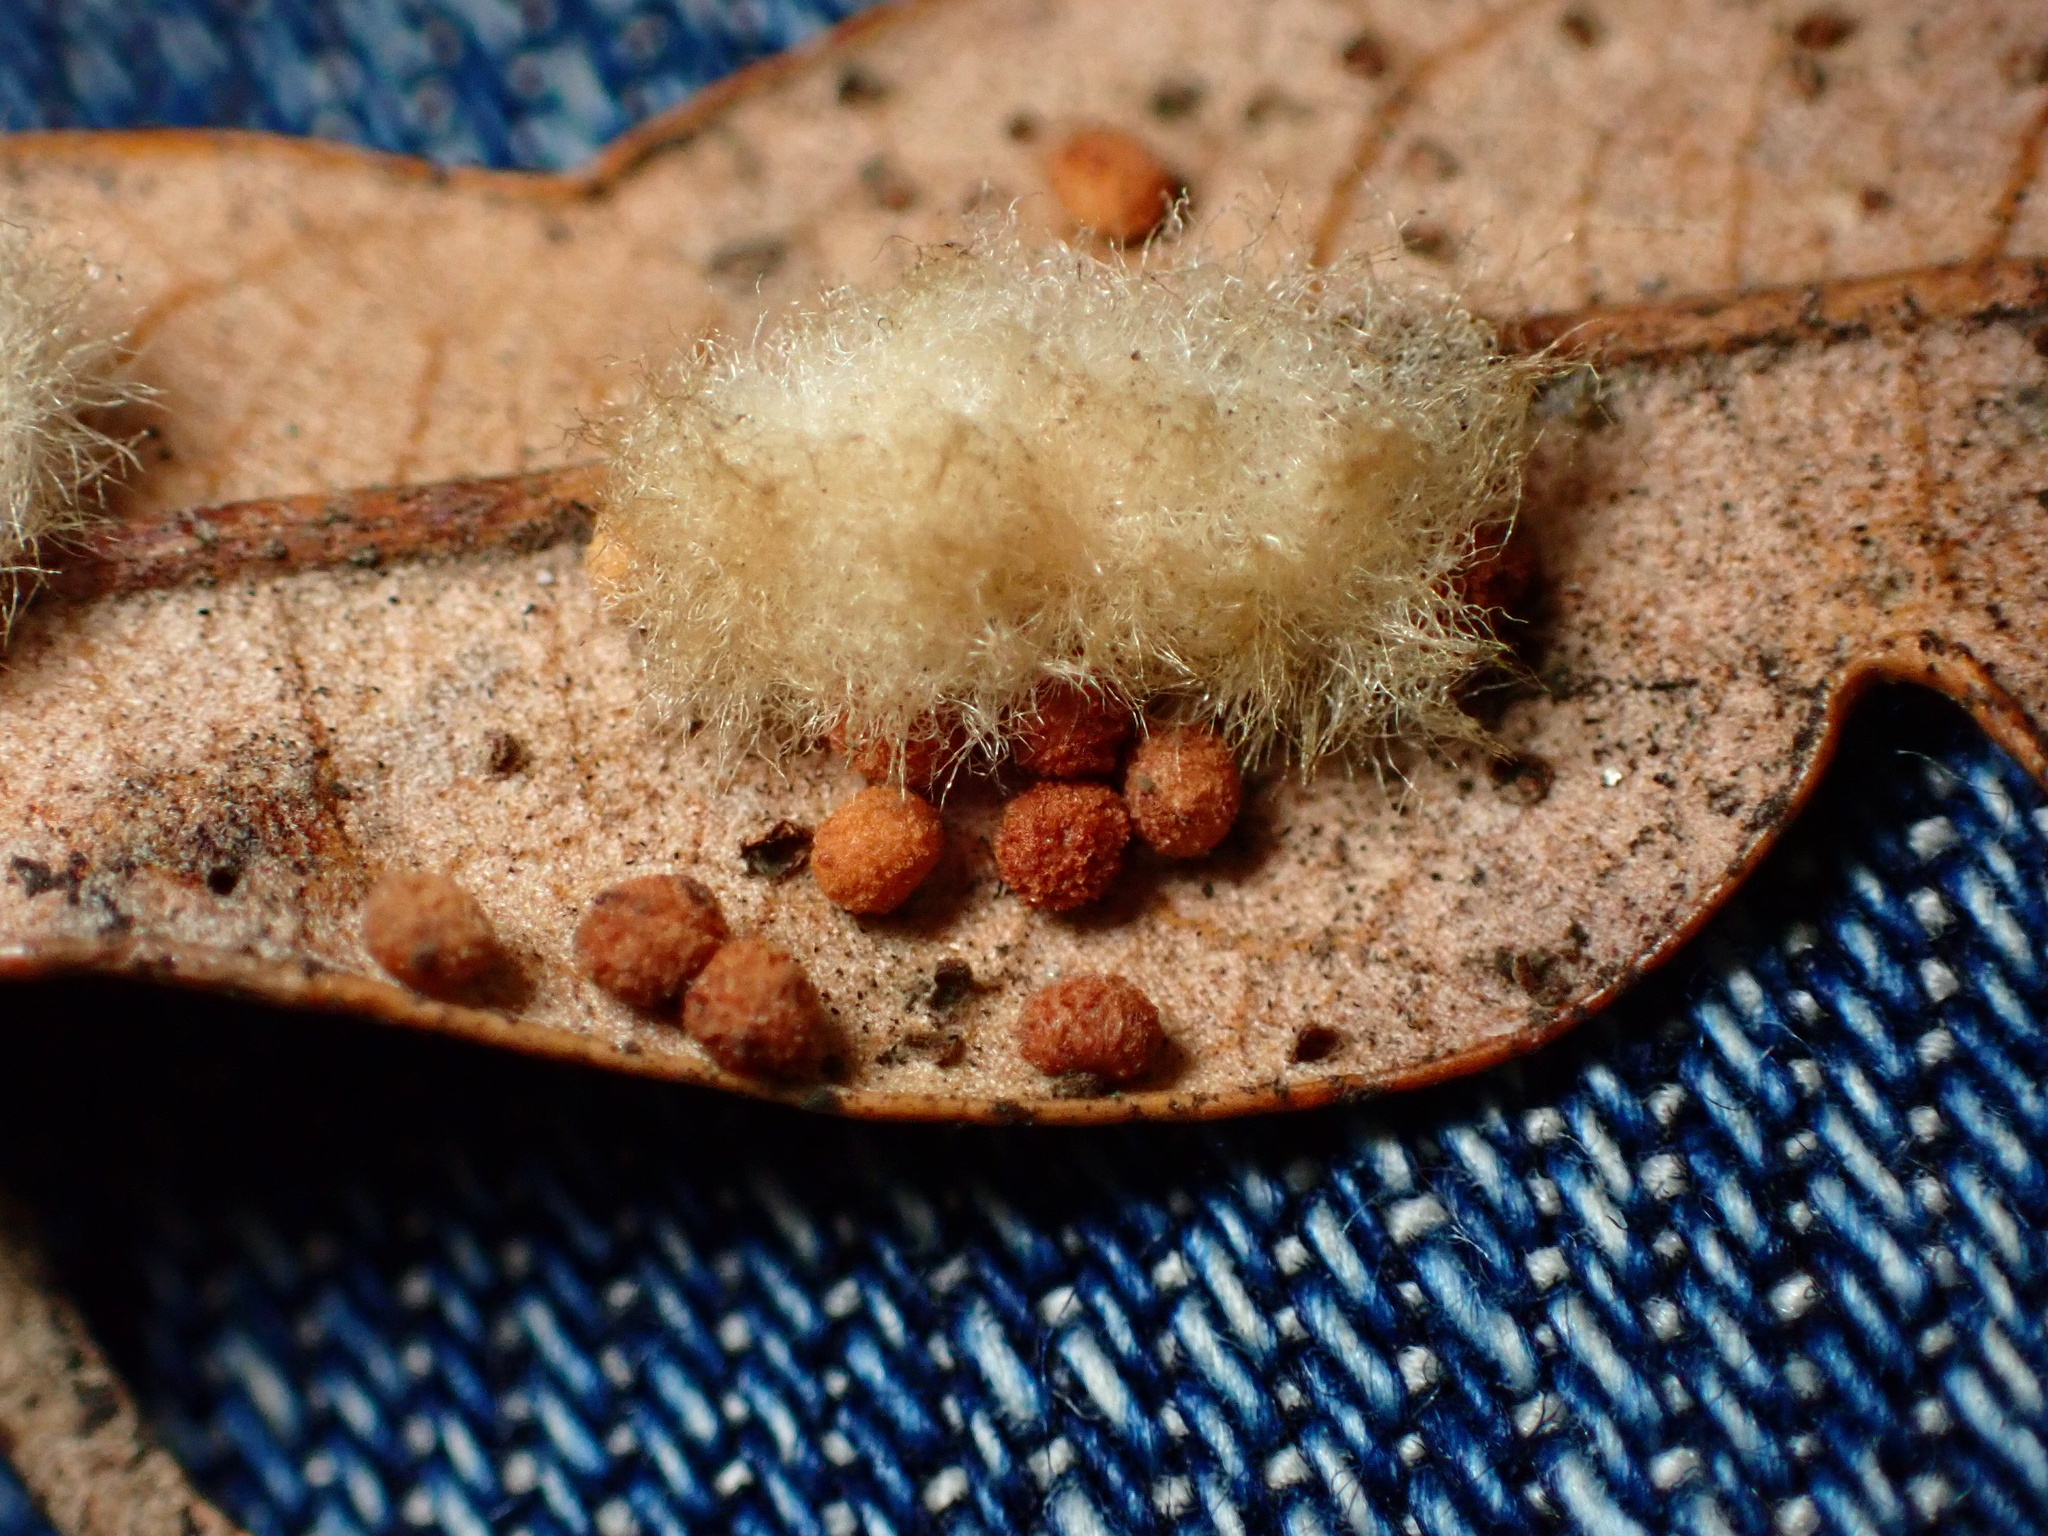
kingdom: Animalia
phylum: Arthropoda
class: Insecta
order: Hymenoptera
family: Cynipidae
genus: Andricus
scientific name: Andricus Druon quercuslanigerum
